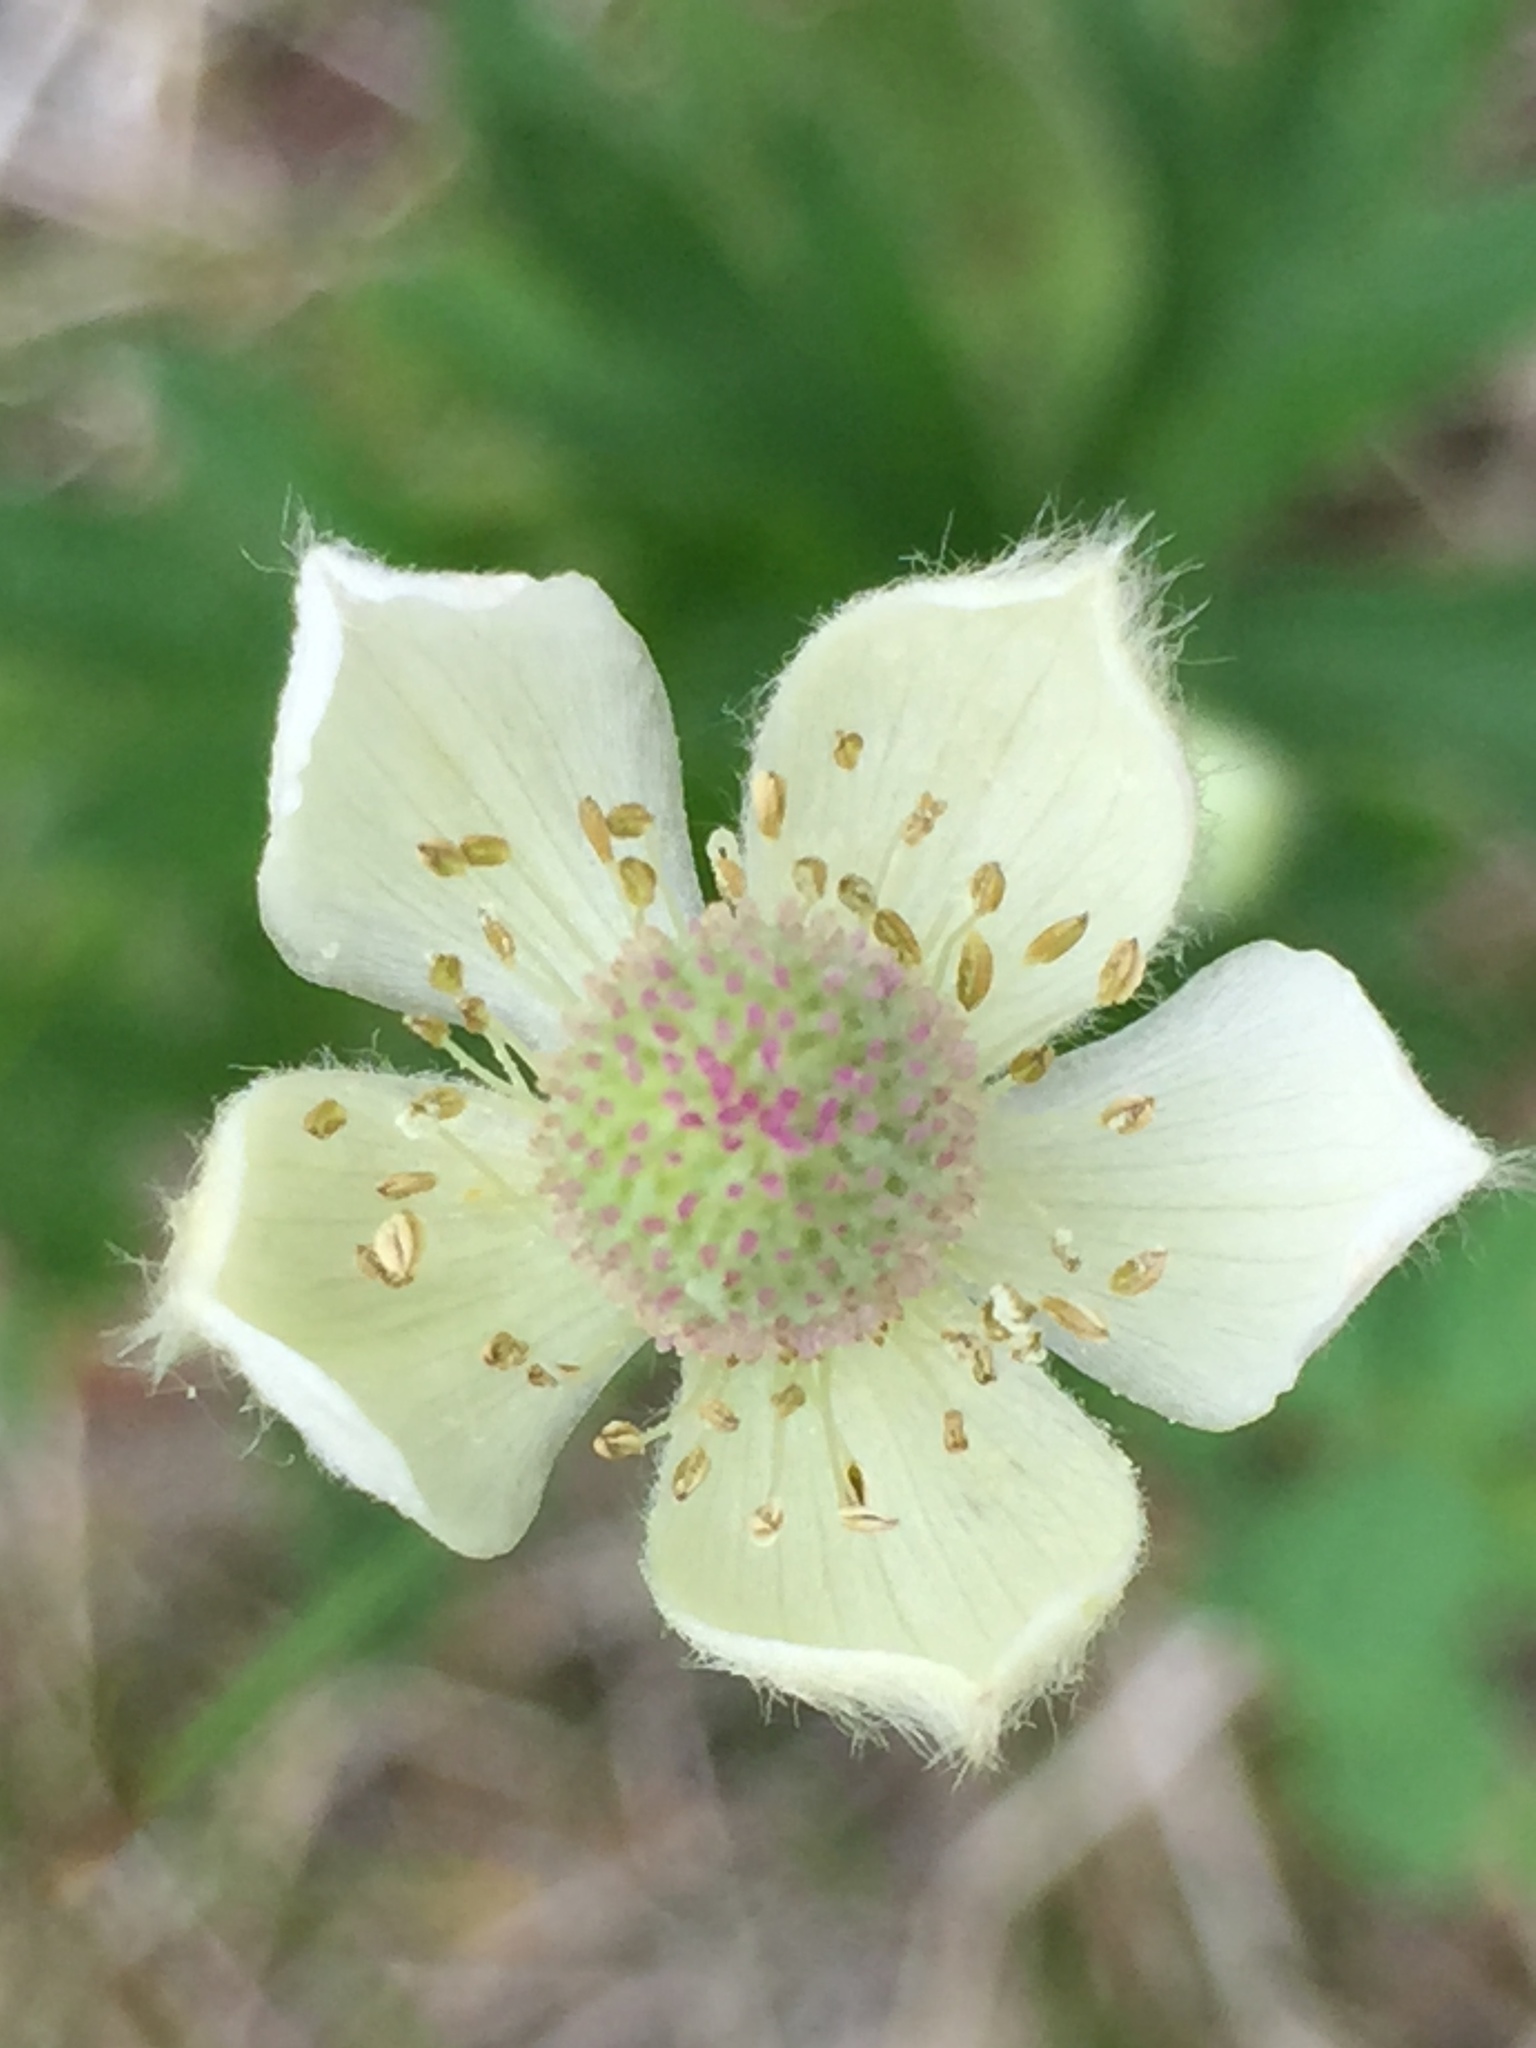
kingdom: Plantae
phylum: Tracheophyta
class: Magnoliopsida
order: Ranunculales
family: Ranunculaceae
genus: Anemone
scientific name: Anemone cylindrica
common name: Candle anemone
